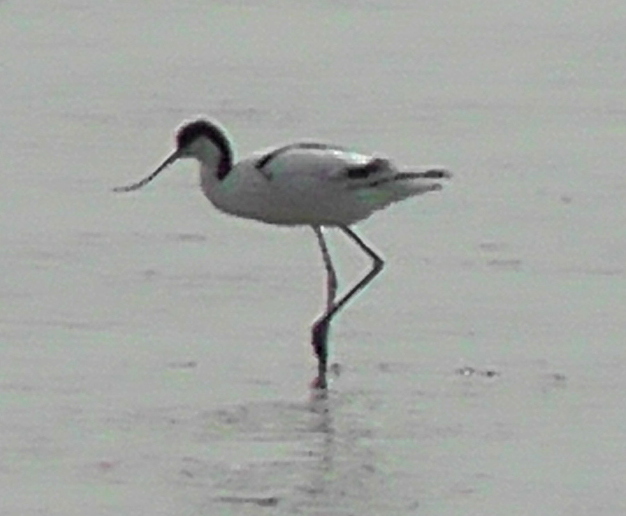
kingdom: Animalia
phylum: Chordata
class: Aves
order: Charadriiformes
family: Recurvirostridae
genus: Recurvirostra
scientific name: Recurvirostra avosetta
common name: Pied avocet
